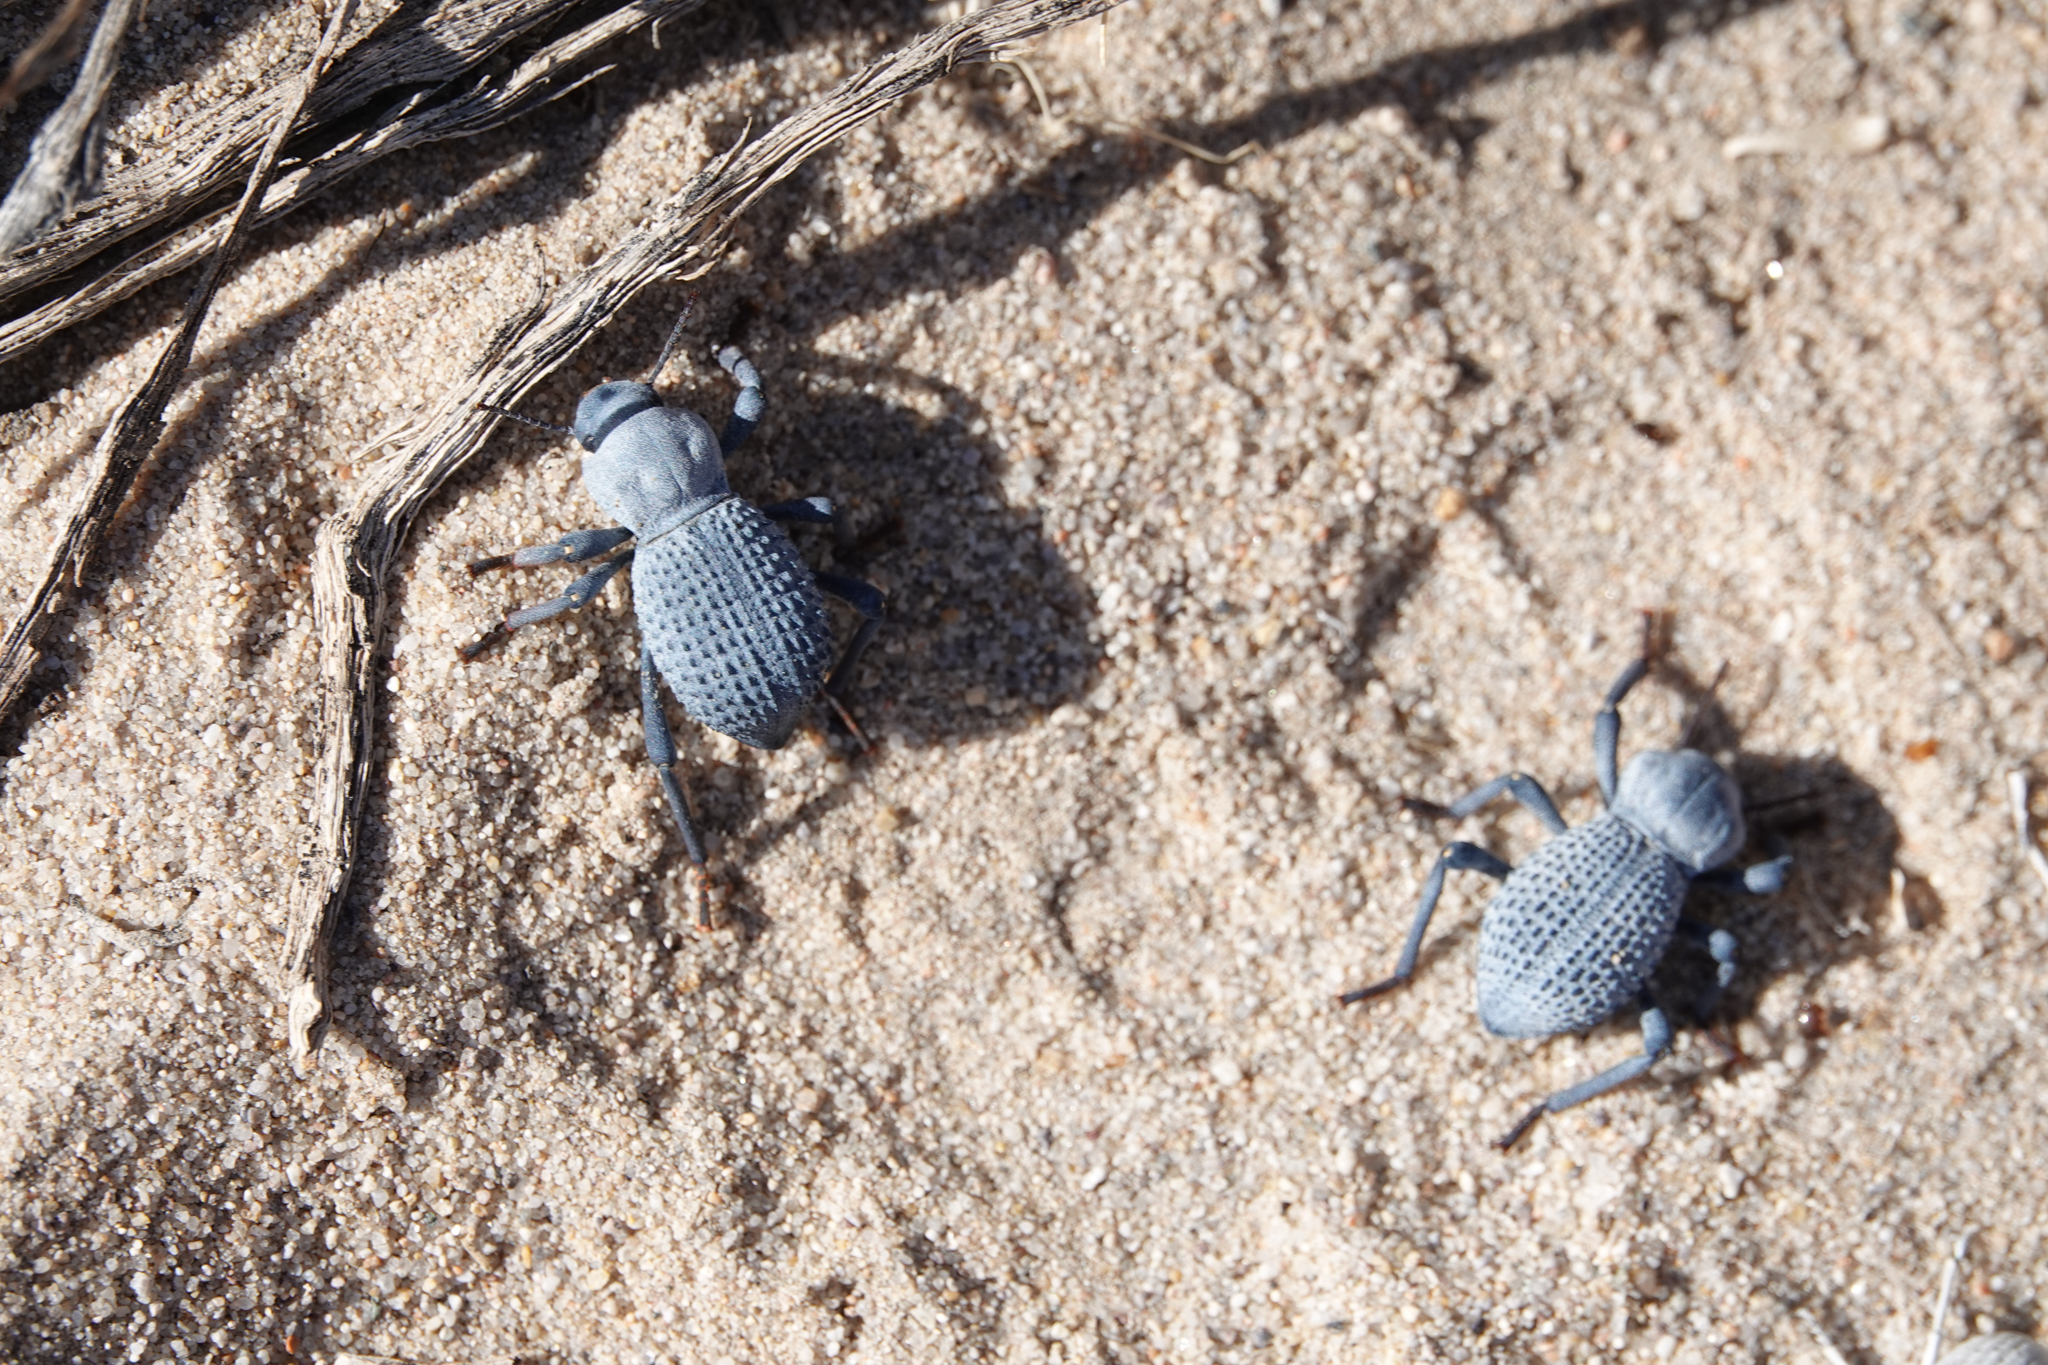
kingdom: Animalia
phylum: Arthropoda
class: Insecta
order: Coleoptera
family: Tenebrionidae
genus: Asbolus
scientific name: Asbolus verrucosus
